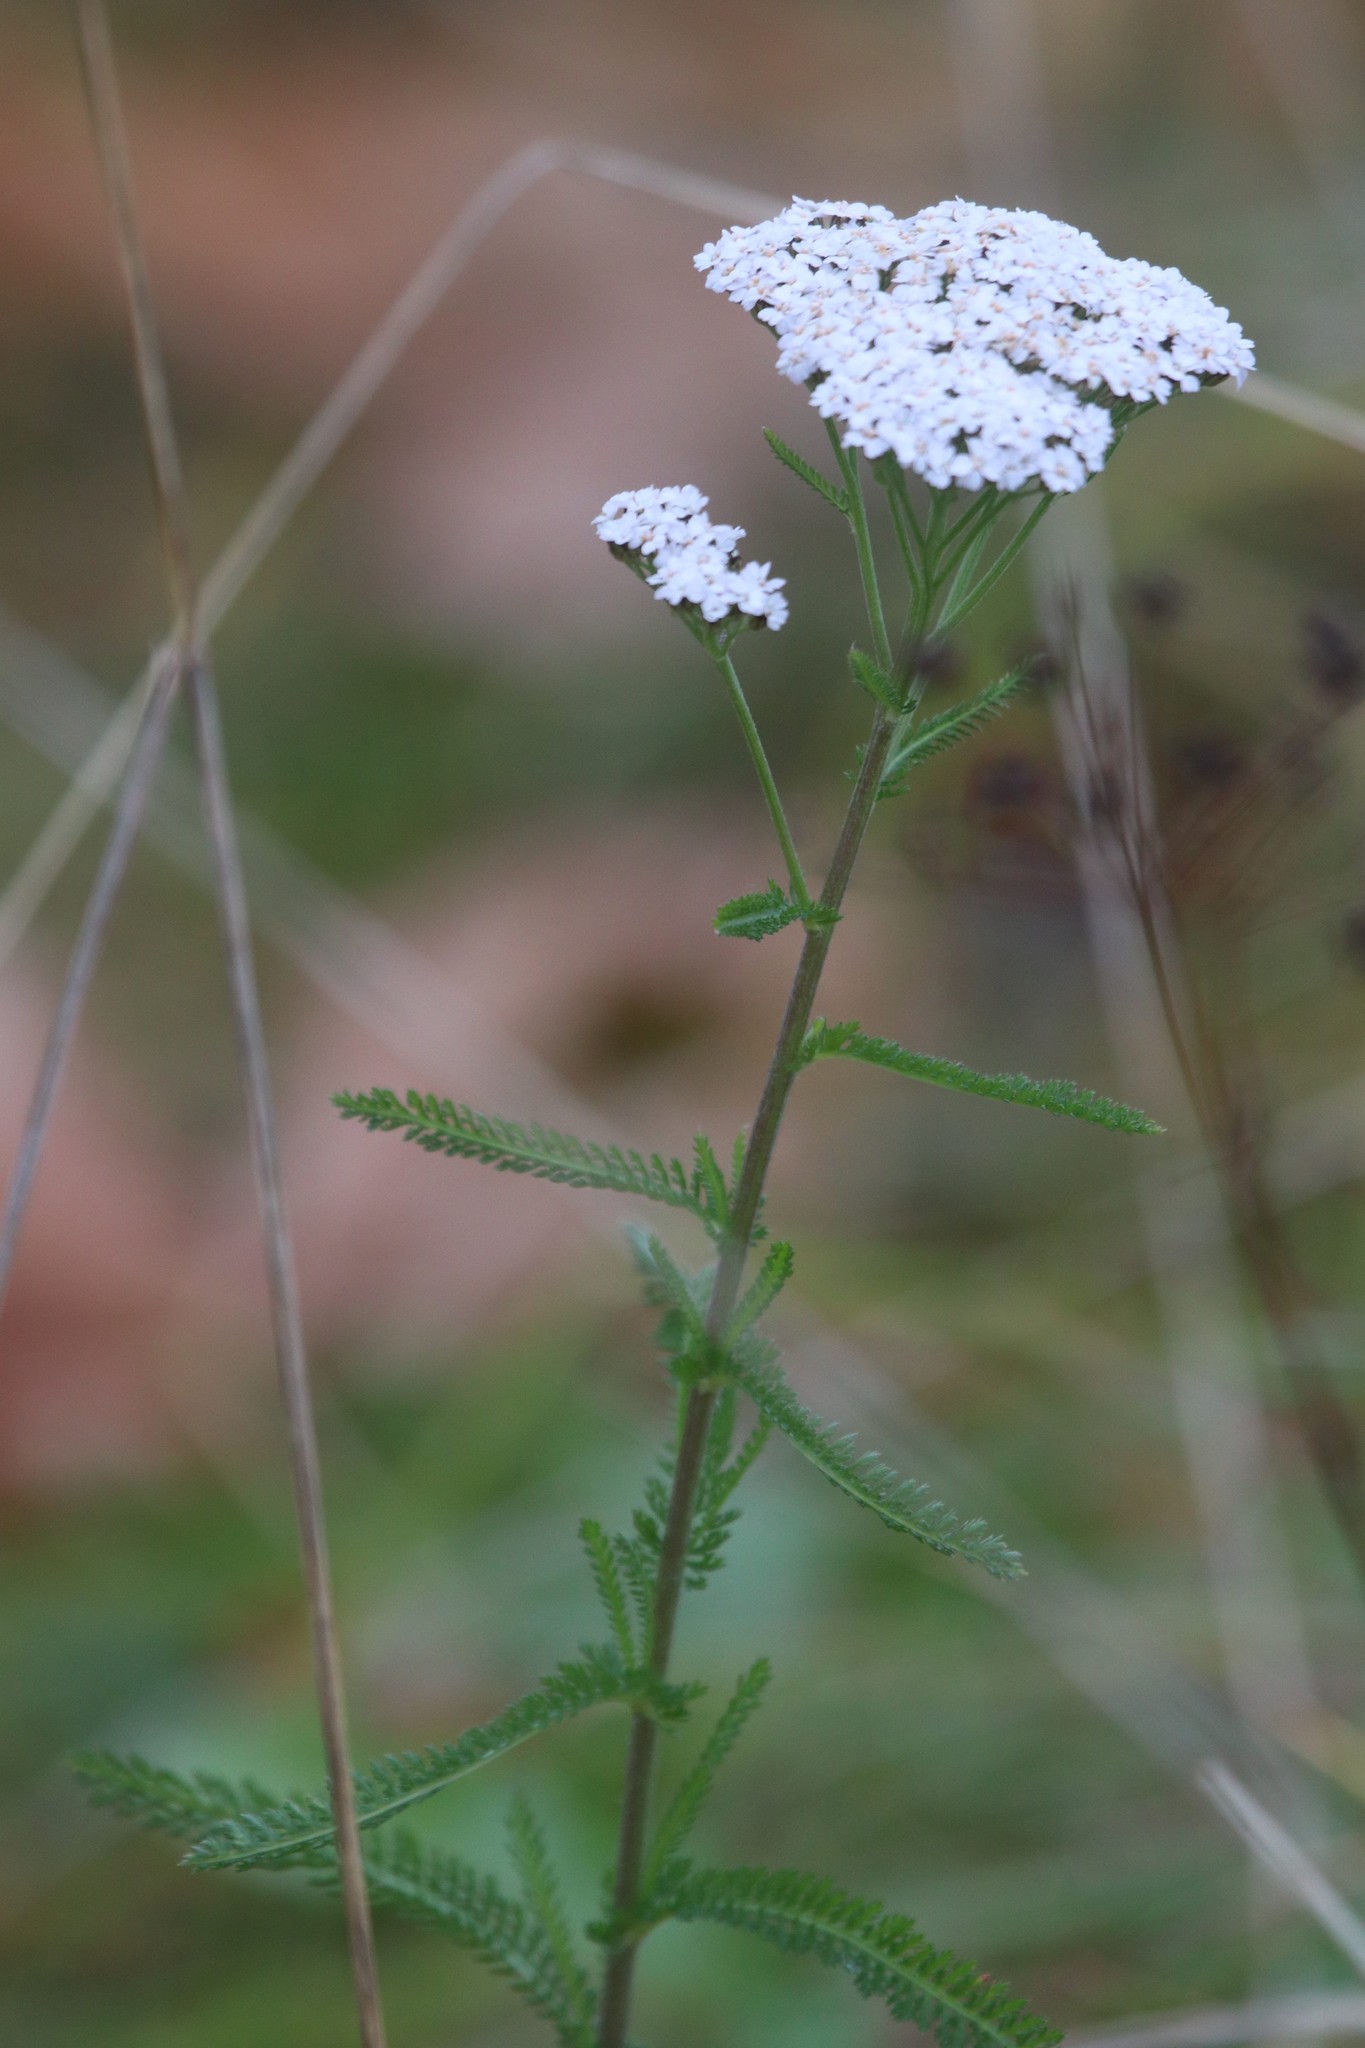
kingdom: Plantae
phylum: Tracheophyta
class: Magnoliopsida
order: Asterales
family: Asteraceae
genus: Achillea
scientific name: Achillea millefolium
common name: Yarrow
